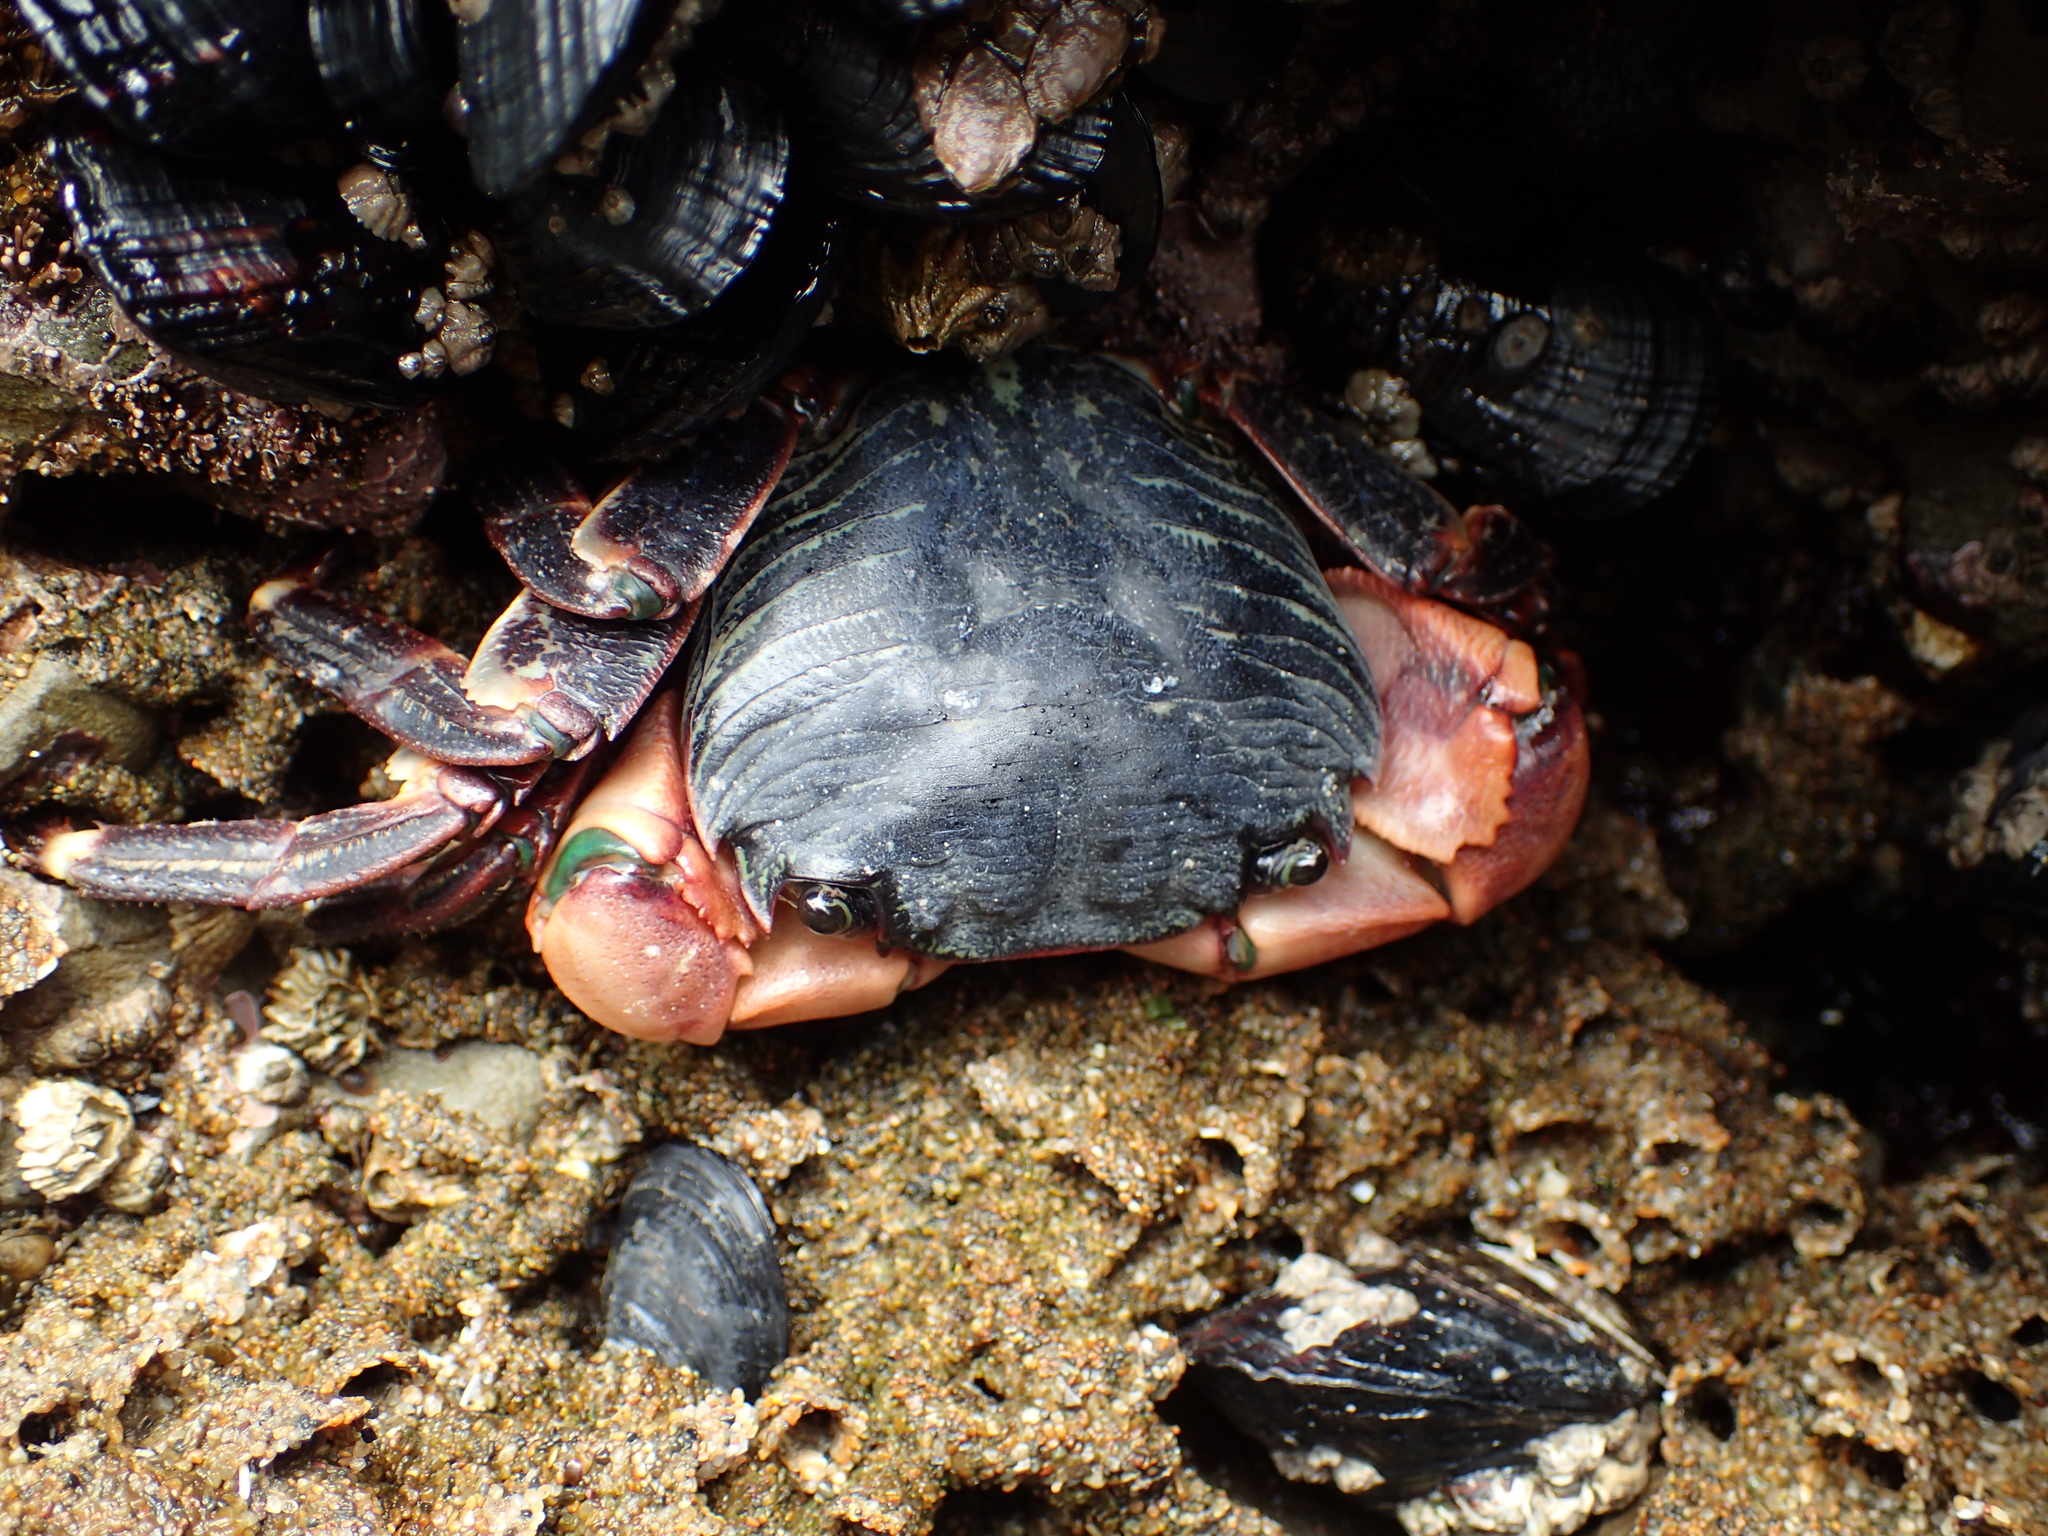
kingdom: Animalia
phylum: Arthropoda
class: Malacostraca
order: Decapoda
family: Grapsidae
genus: Pachygrapsus
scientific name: Pachygrapsus crassipes
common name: Striped shore crab
